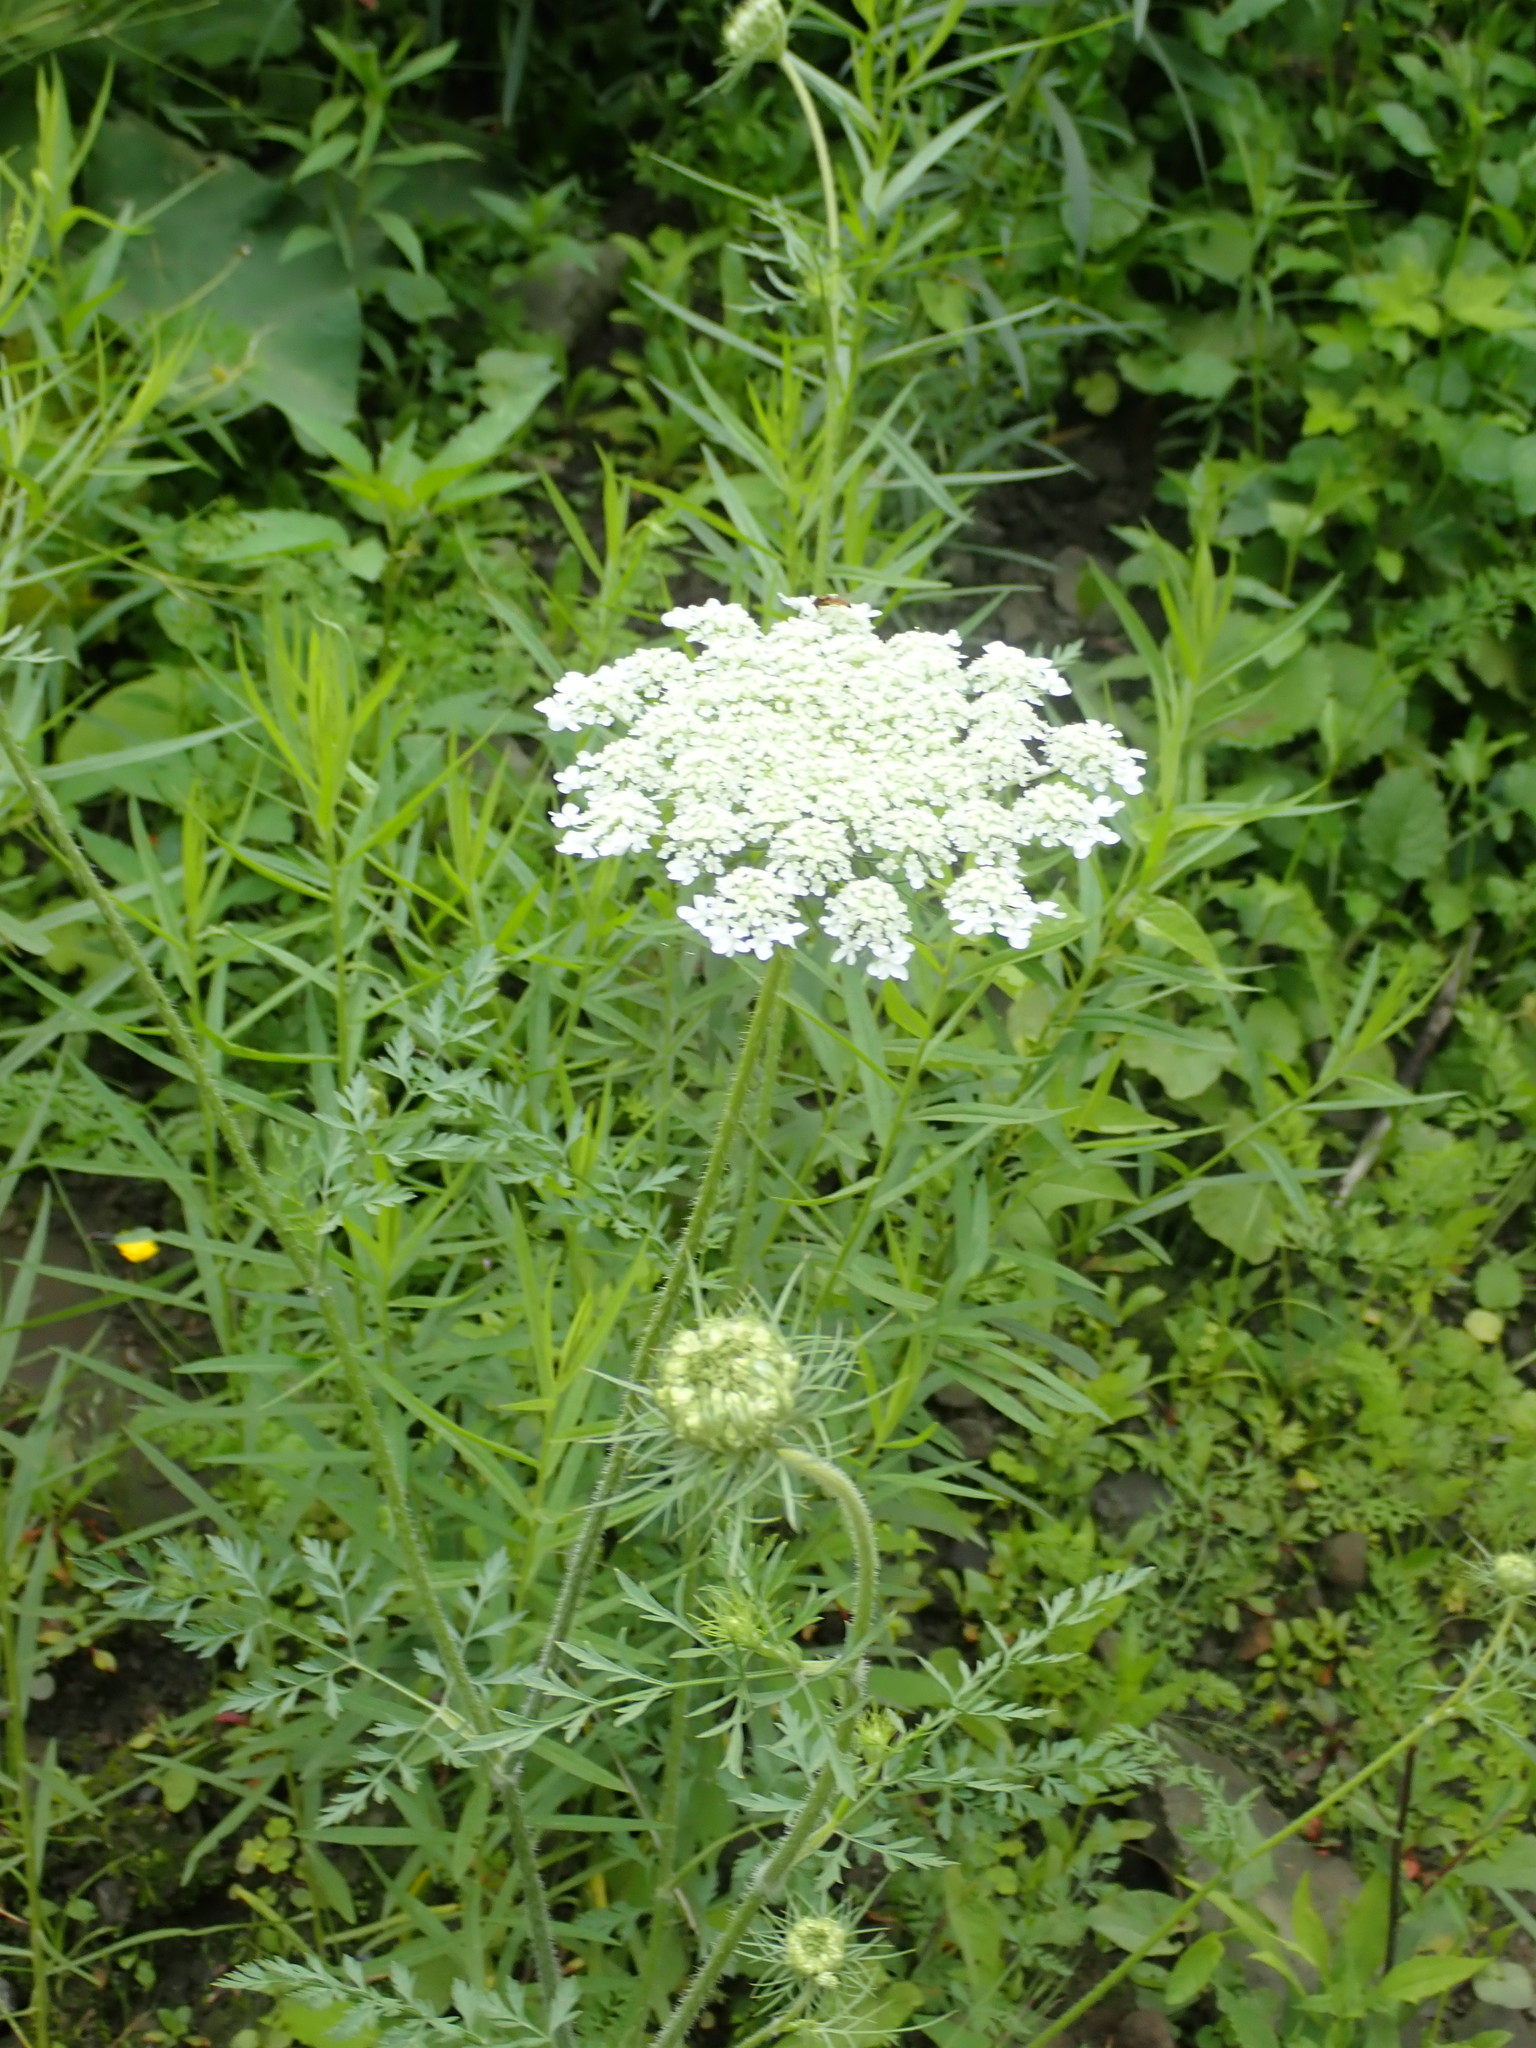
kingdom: Plantae
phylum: Tracheophyta
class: Magnoliopsida
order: Apiales
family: Apiaceae
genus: Daucus
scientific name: Daucus carota
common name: Wild carrot
